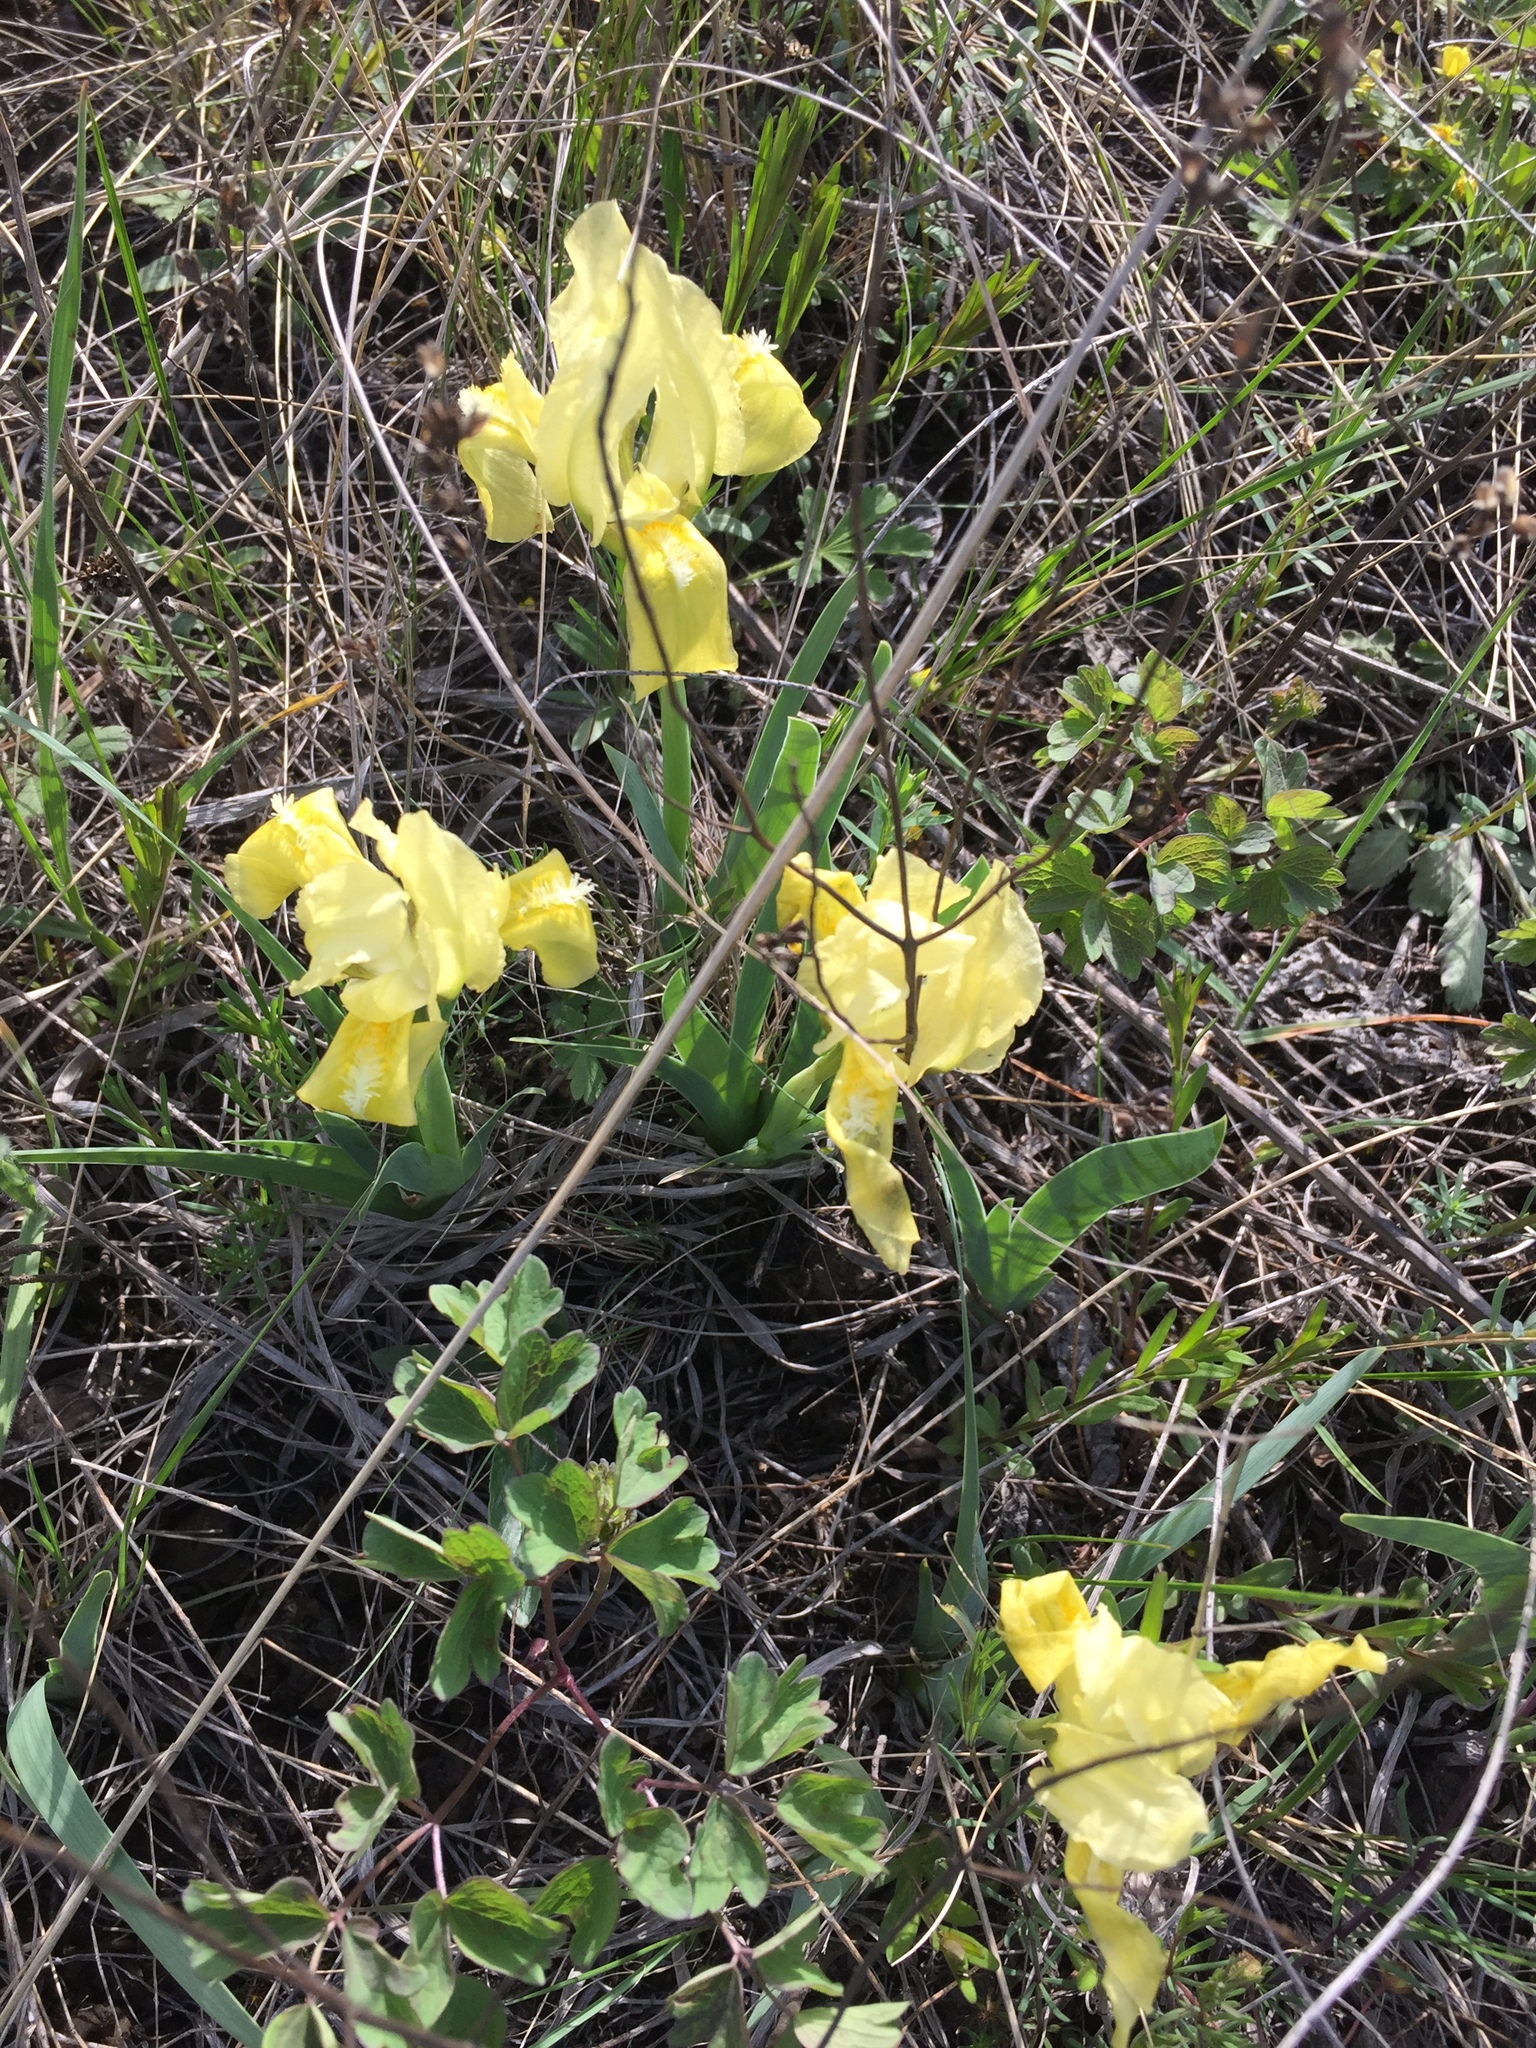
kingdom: Plantae
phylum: Tracheophyta
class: Liliopsida
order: Asparagales
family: Iridaceae
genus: Iris
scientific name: Iris pumila
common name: Dwarf iris
